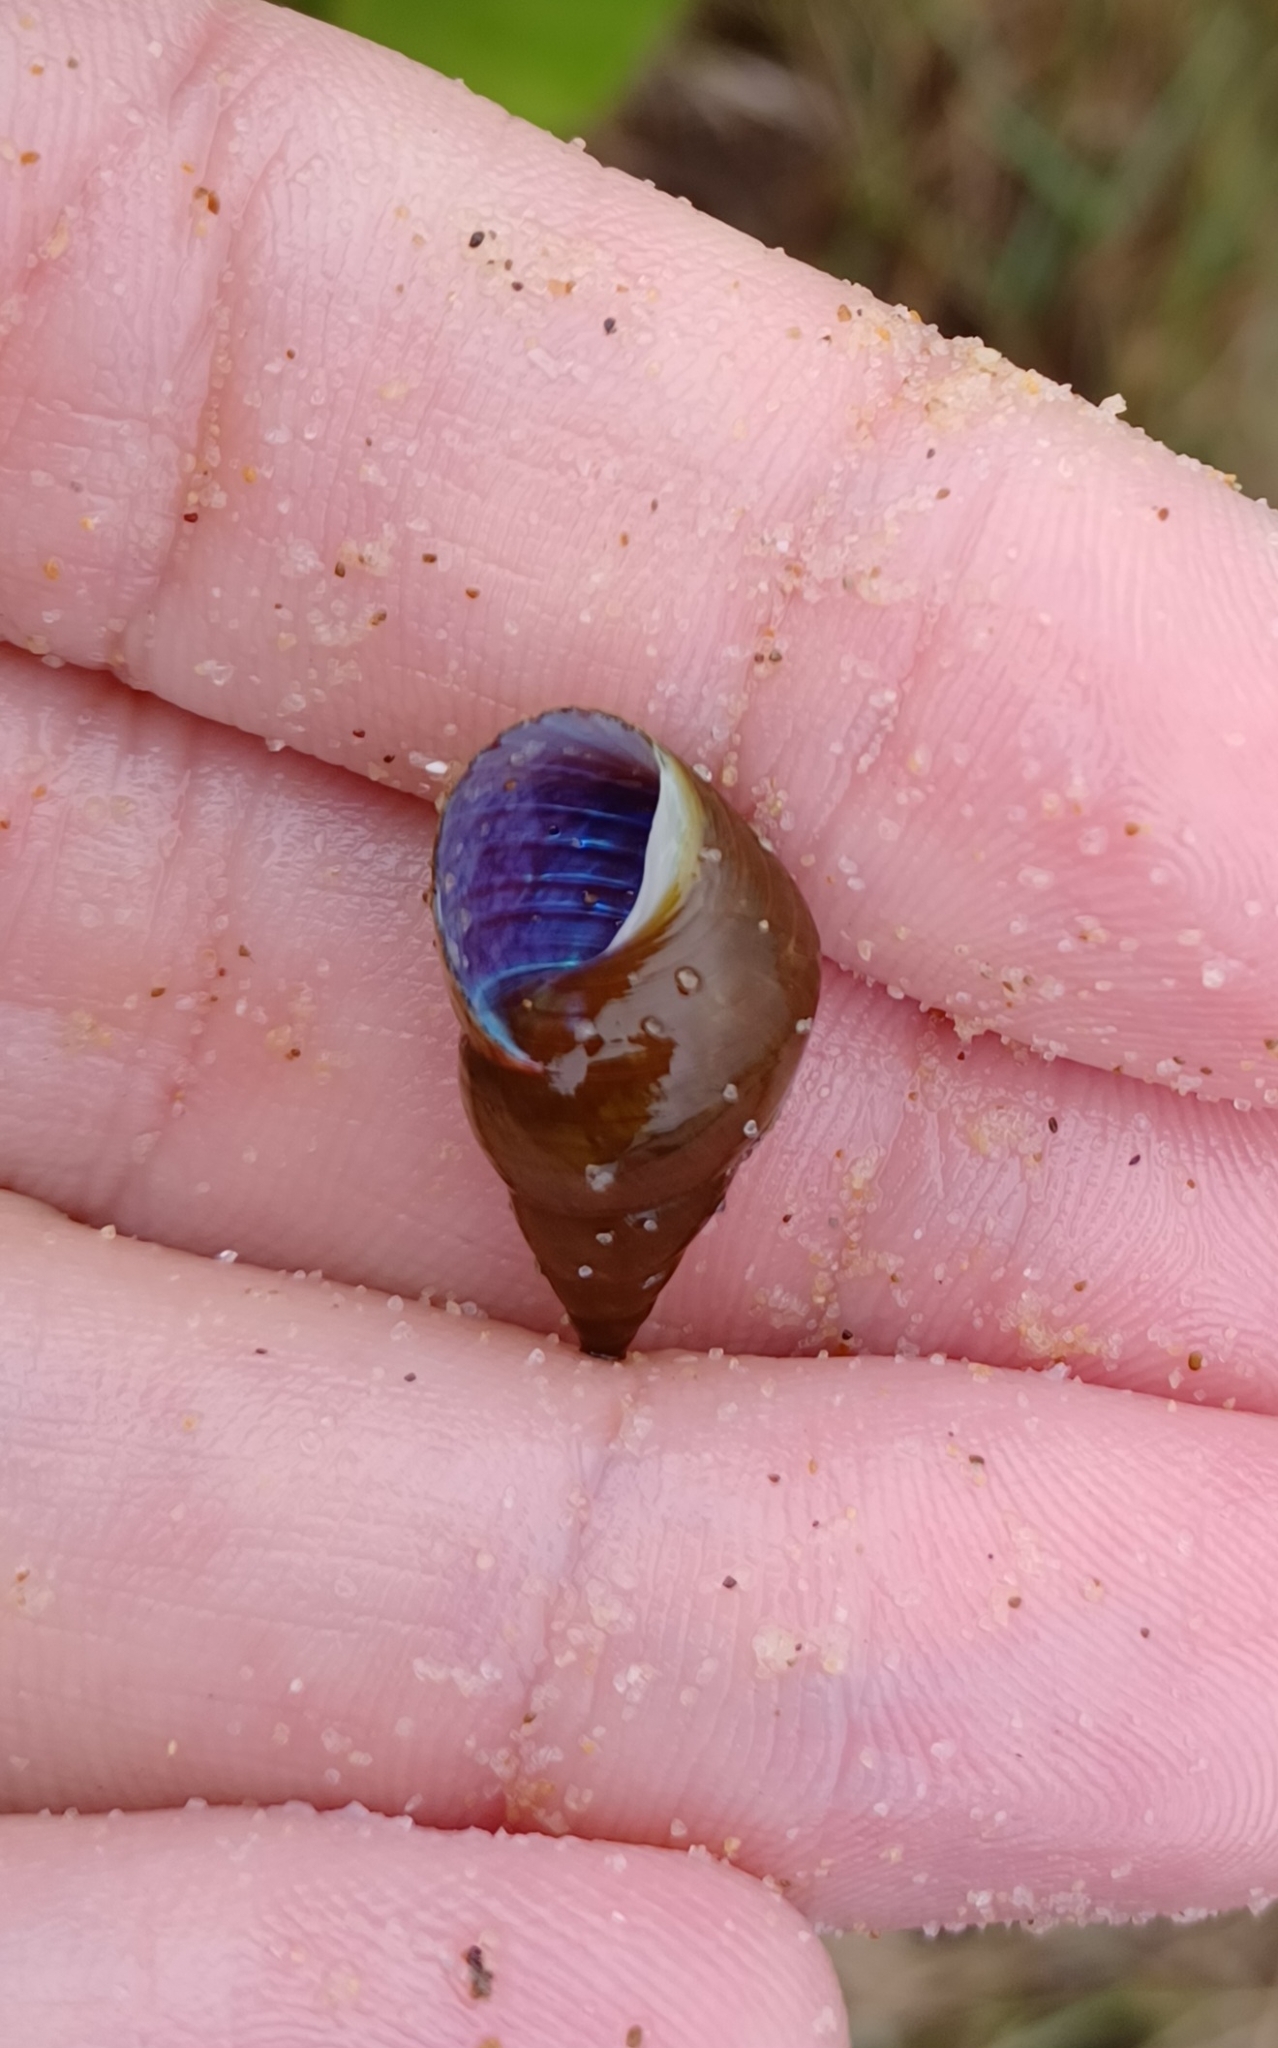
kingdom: Animalia
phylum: Mollusca
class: Gastropoda
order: Trochida
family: Trochidae
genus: Phasianotrochus
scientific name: Phasianotrochus eximius
